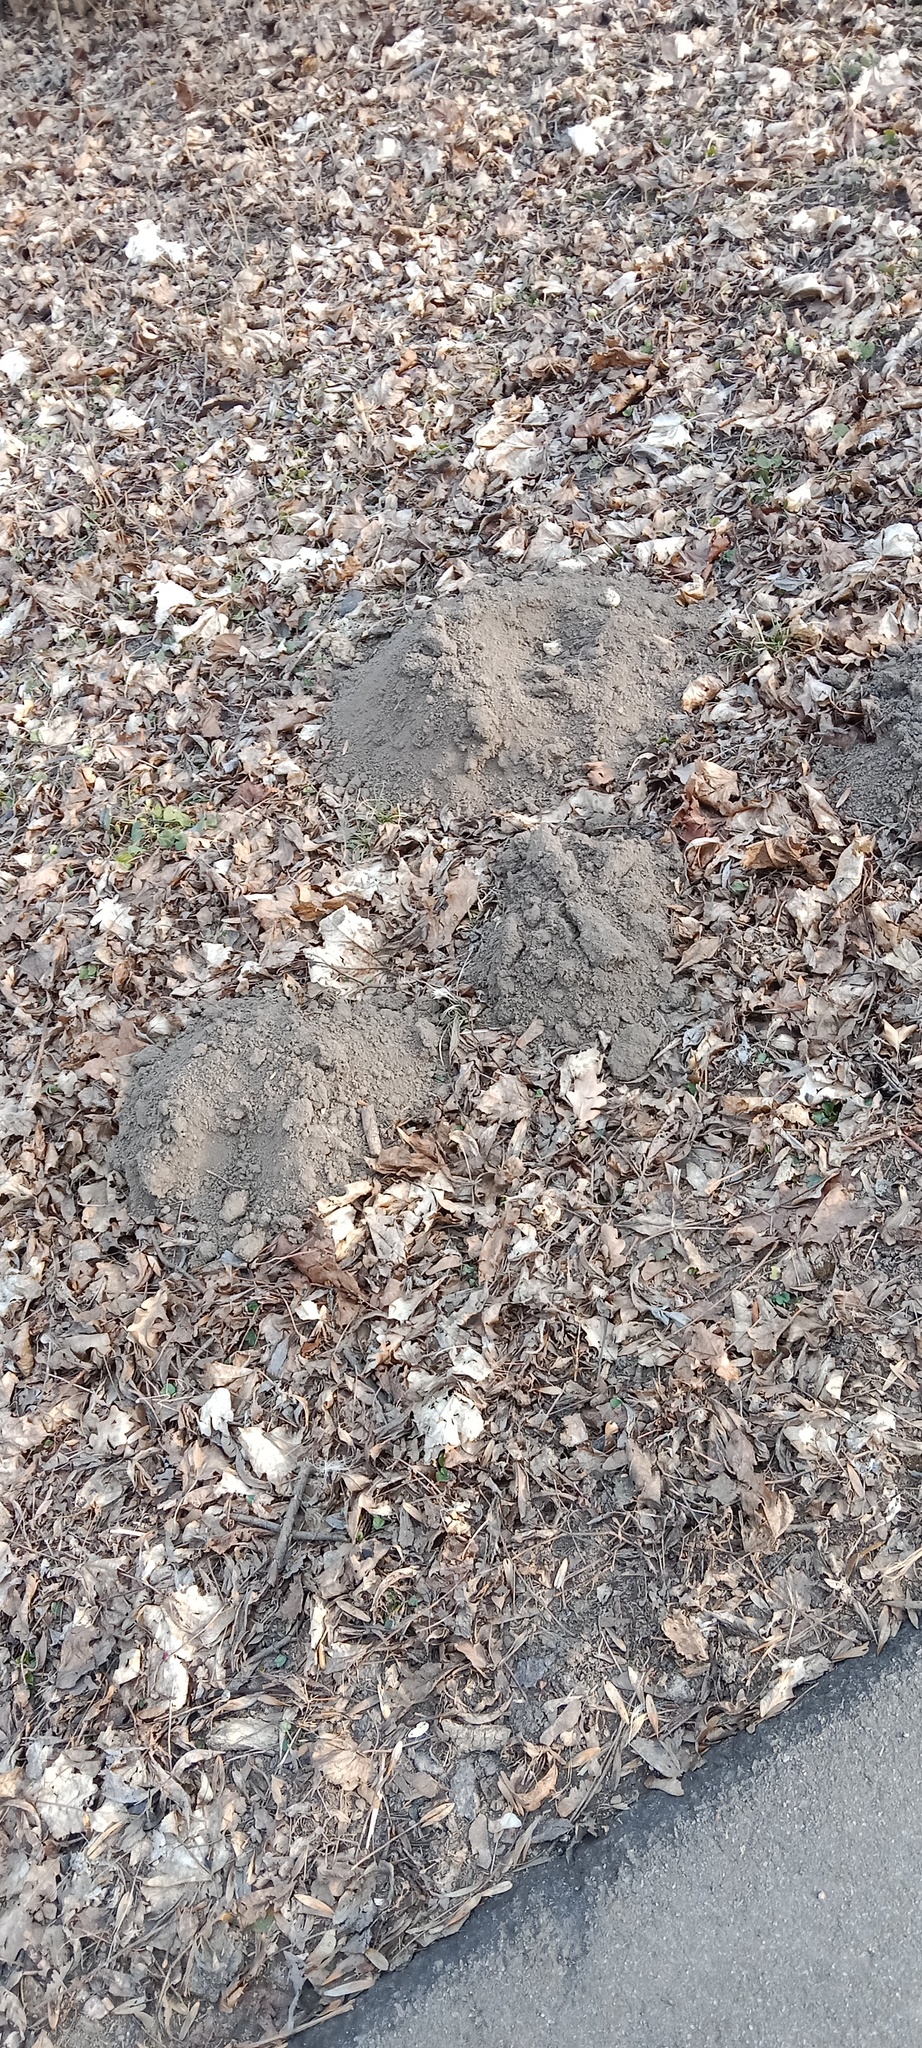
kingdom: Animalia
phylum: Chordata
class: Mammalia
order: Soricomorpha
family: Talpidae
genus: Talpa
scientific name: Talpa europaea
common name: European mole
